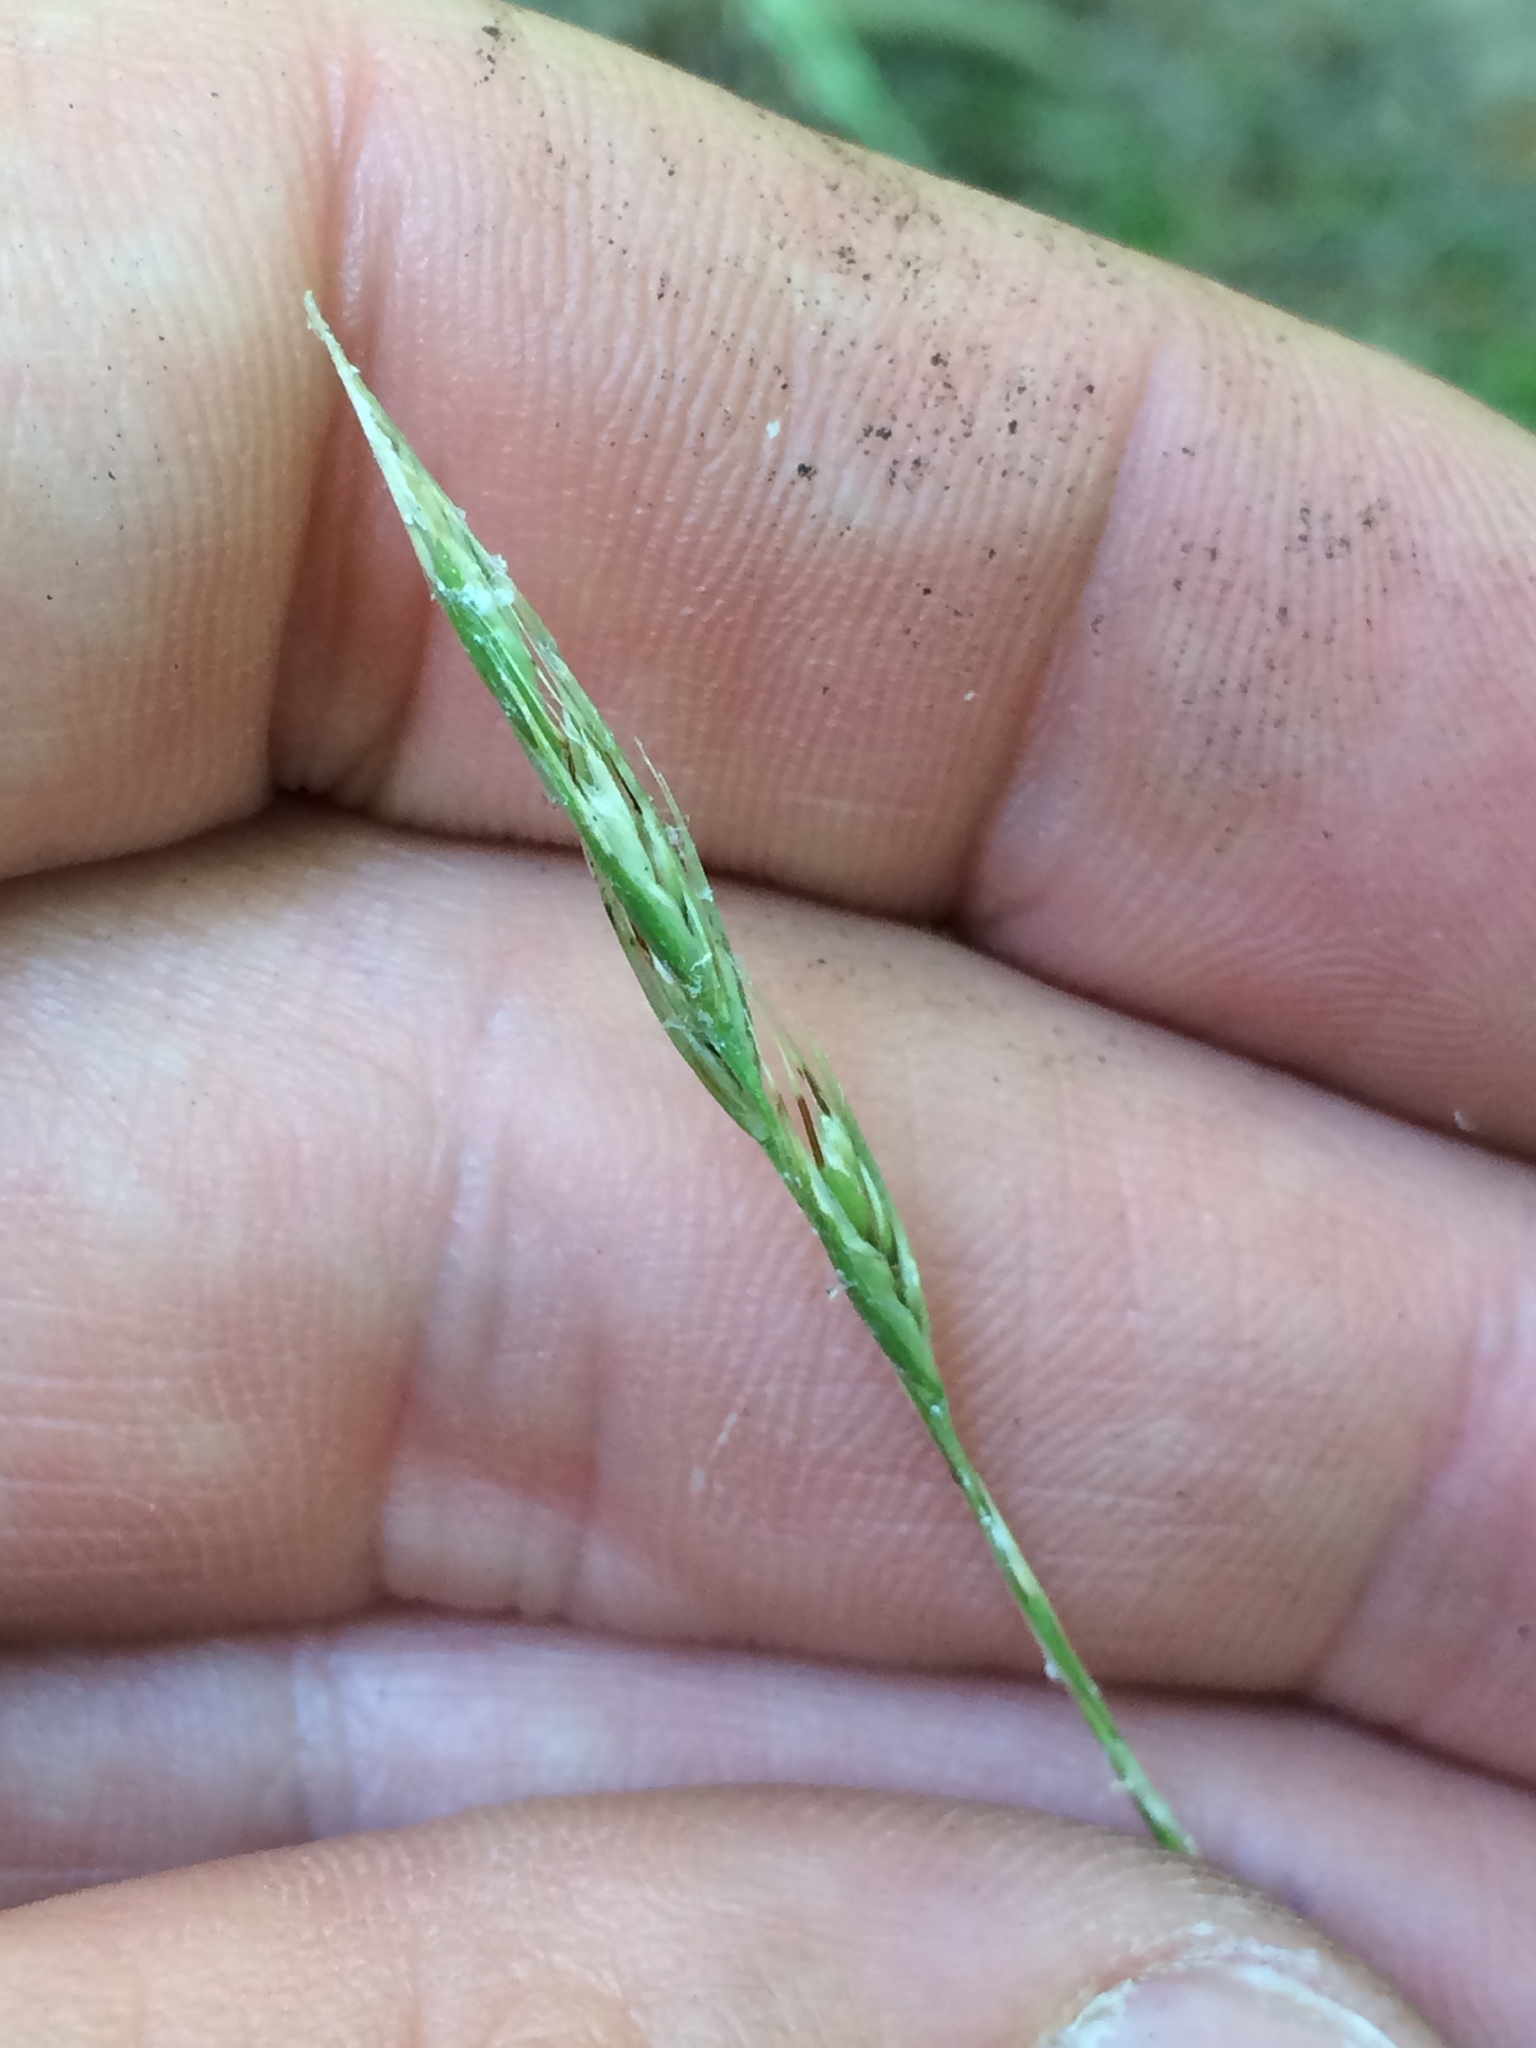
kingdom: Plantae
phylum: Tracheophyta
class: Liliopsida
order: Poales
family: Poaceae
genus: Danthonia
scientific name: Danthonia spicata
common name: Common wild oatgrass
